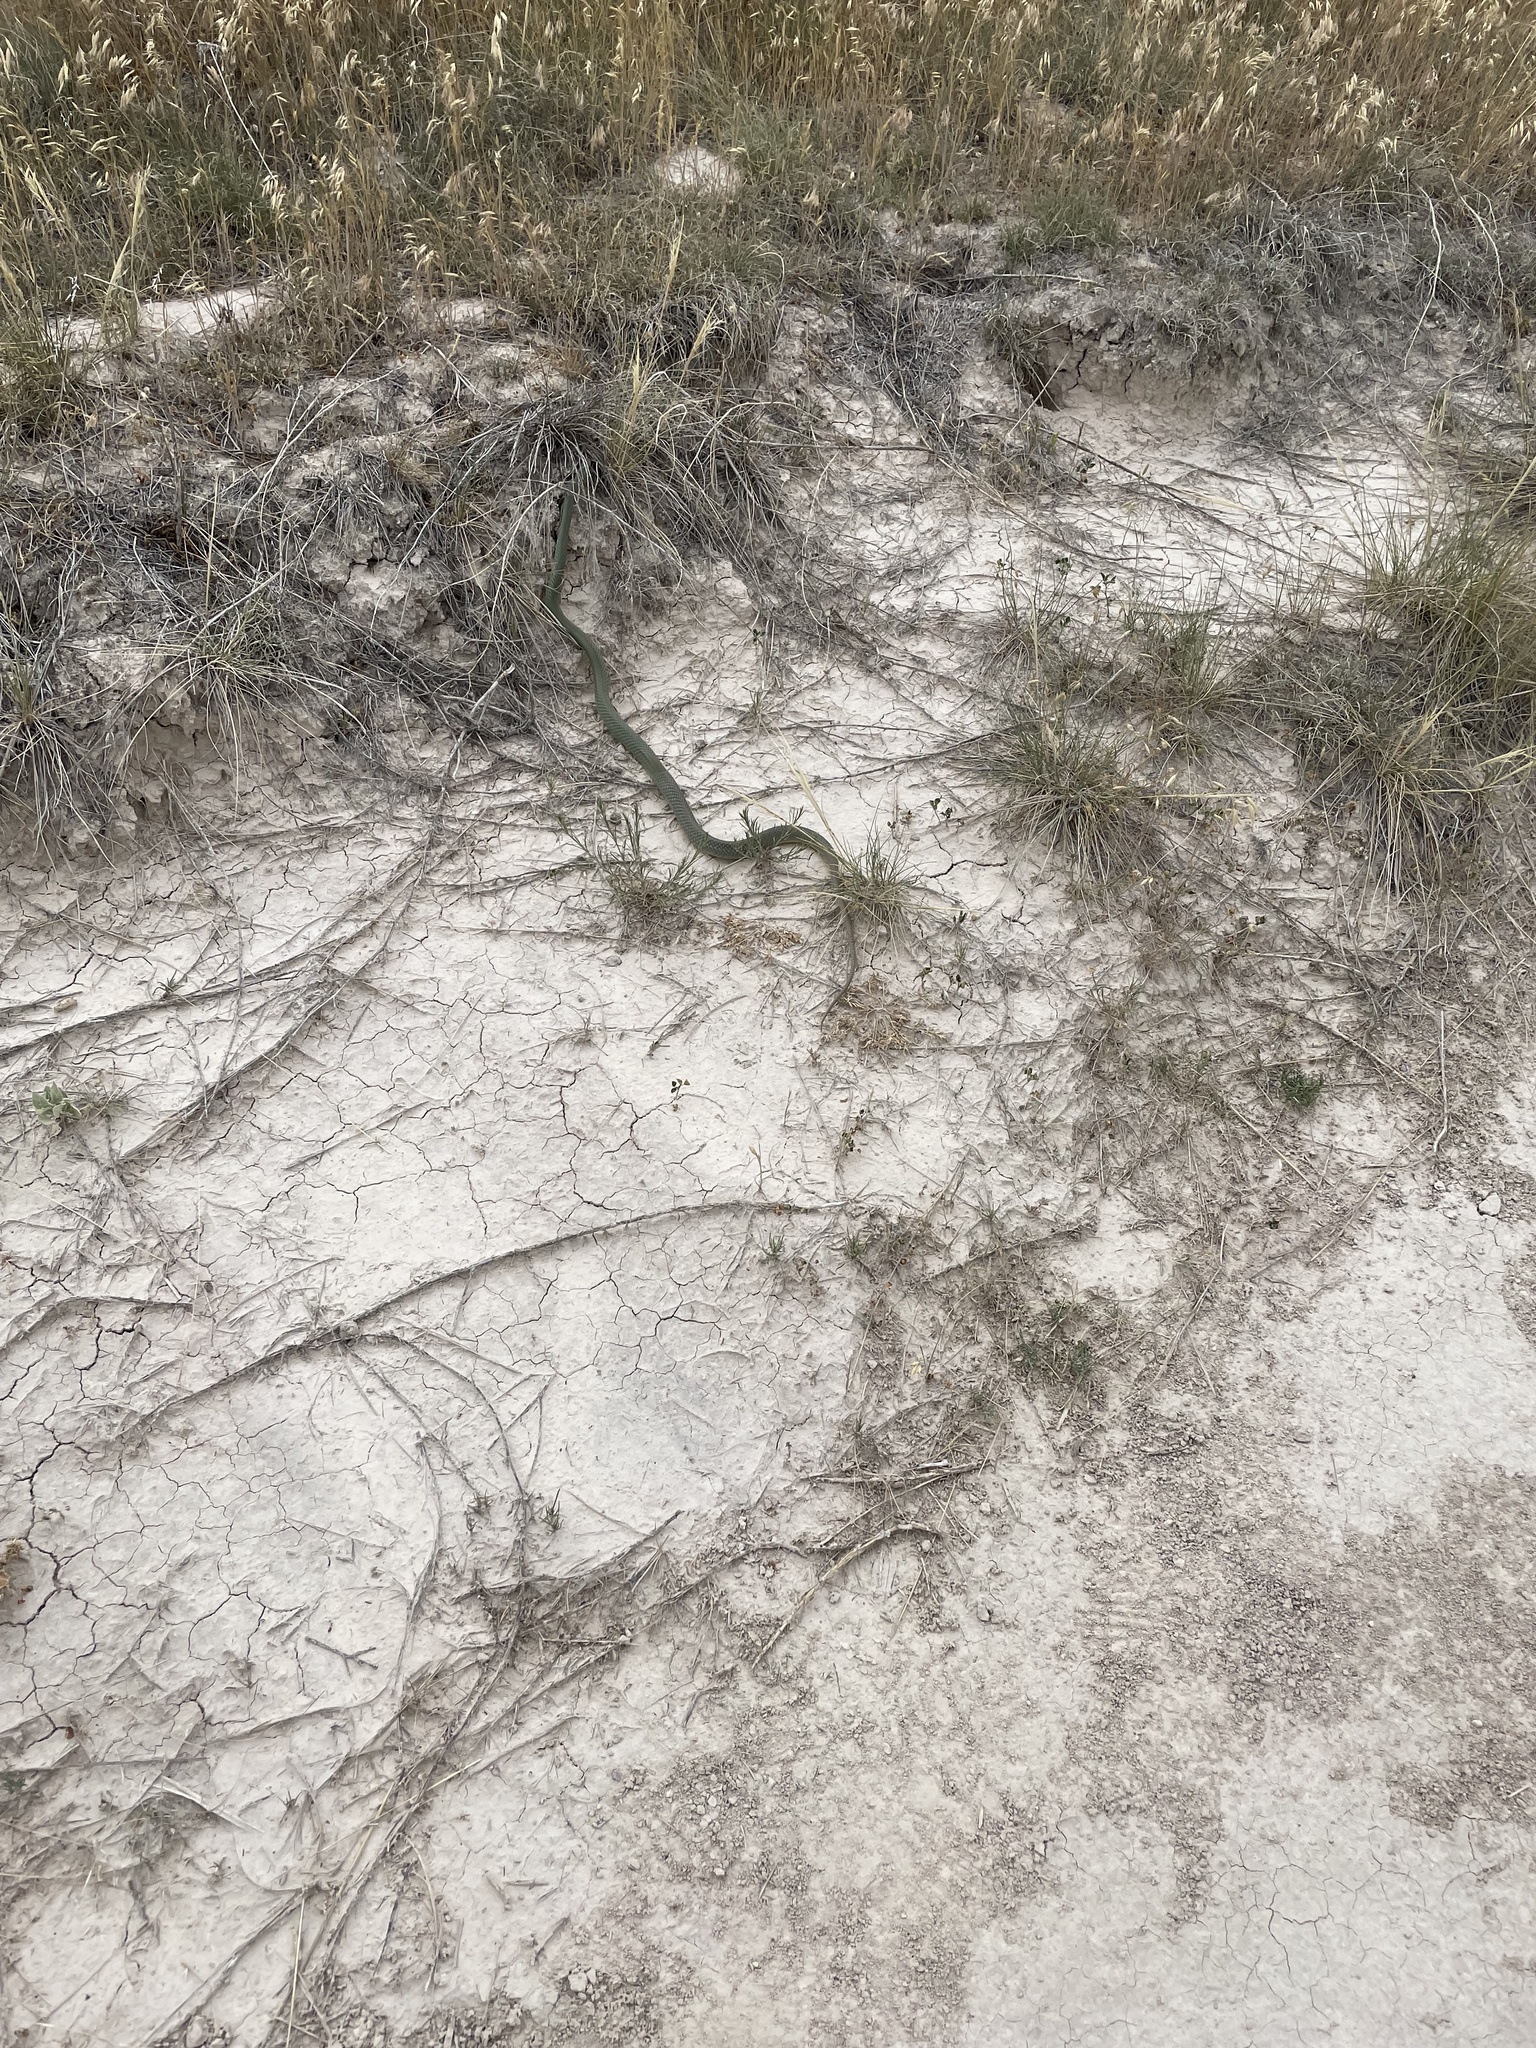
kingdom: Animalia
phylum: Chordata
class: Squamata
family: Colubridae
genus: Coluber
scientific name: Coluber constrictor
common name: Eastern racer
